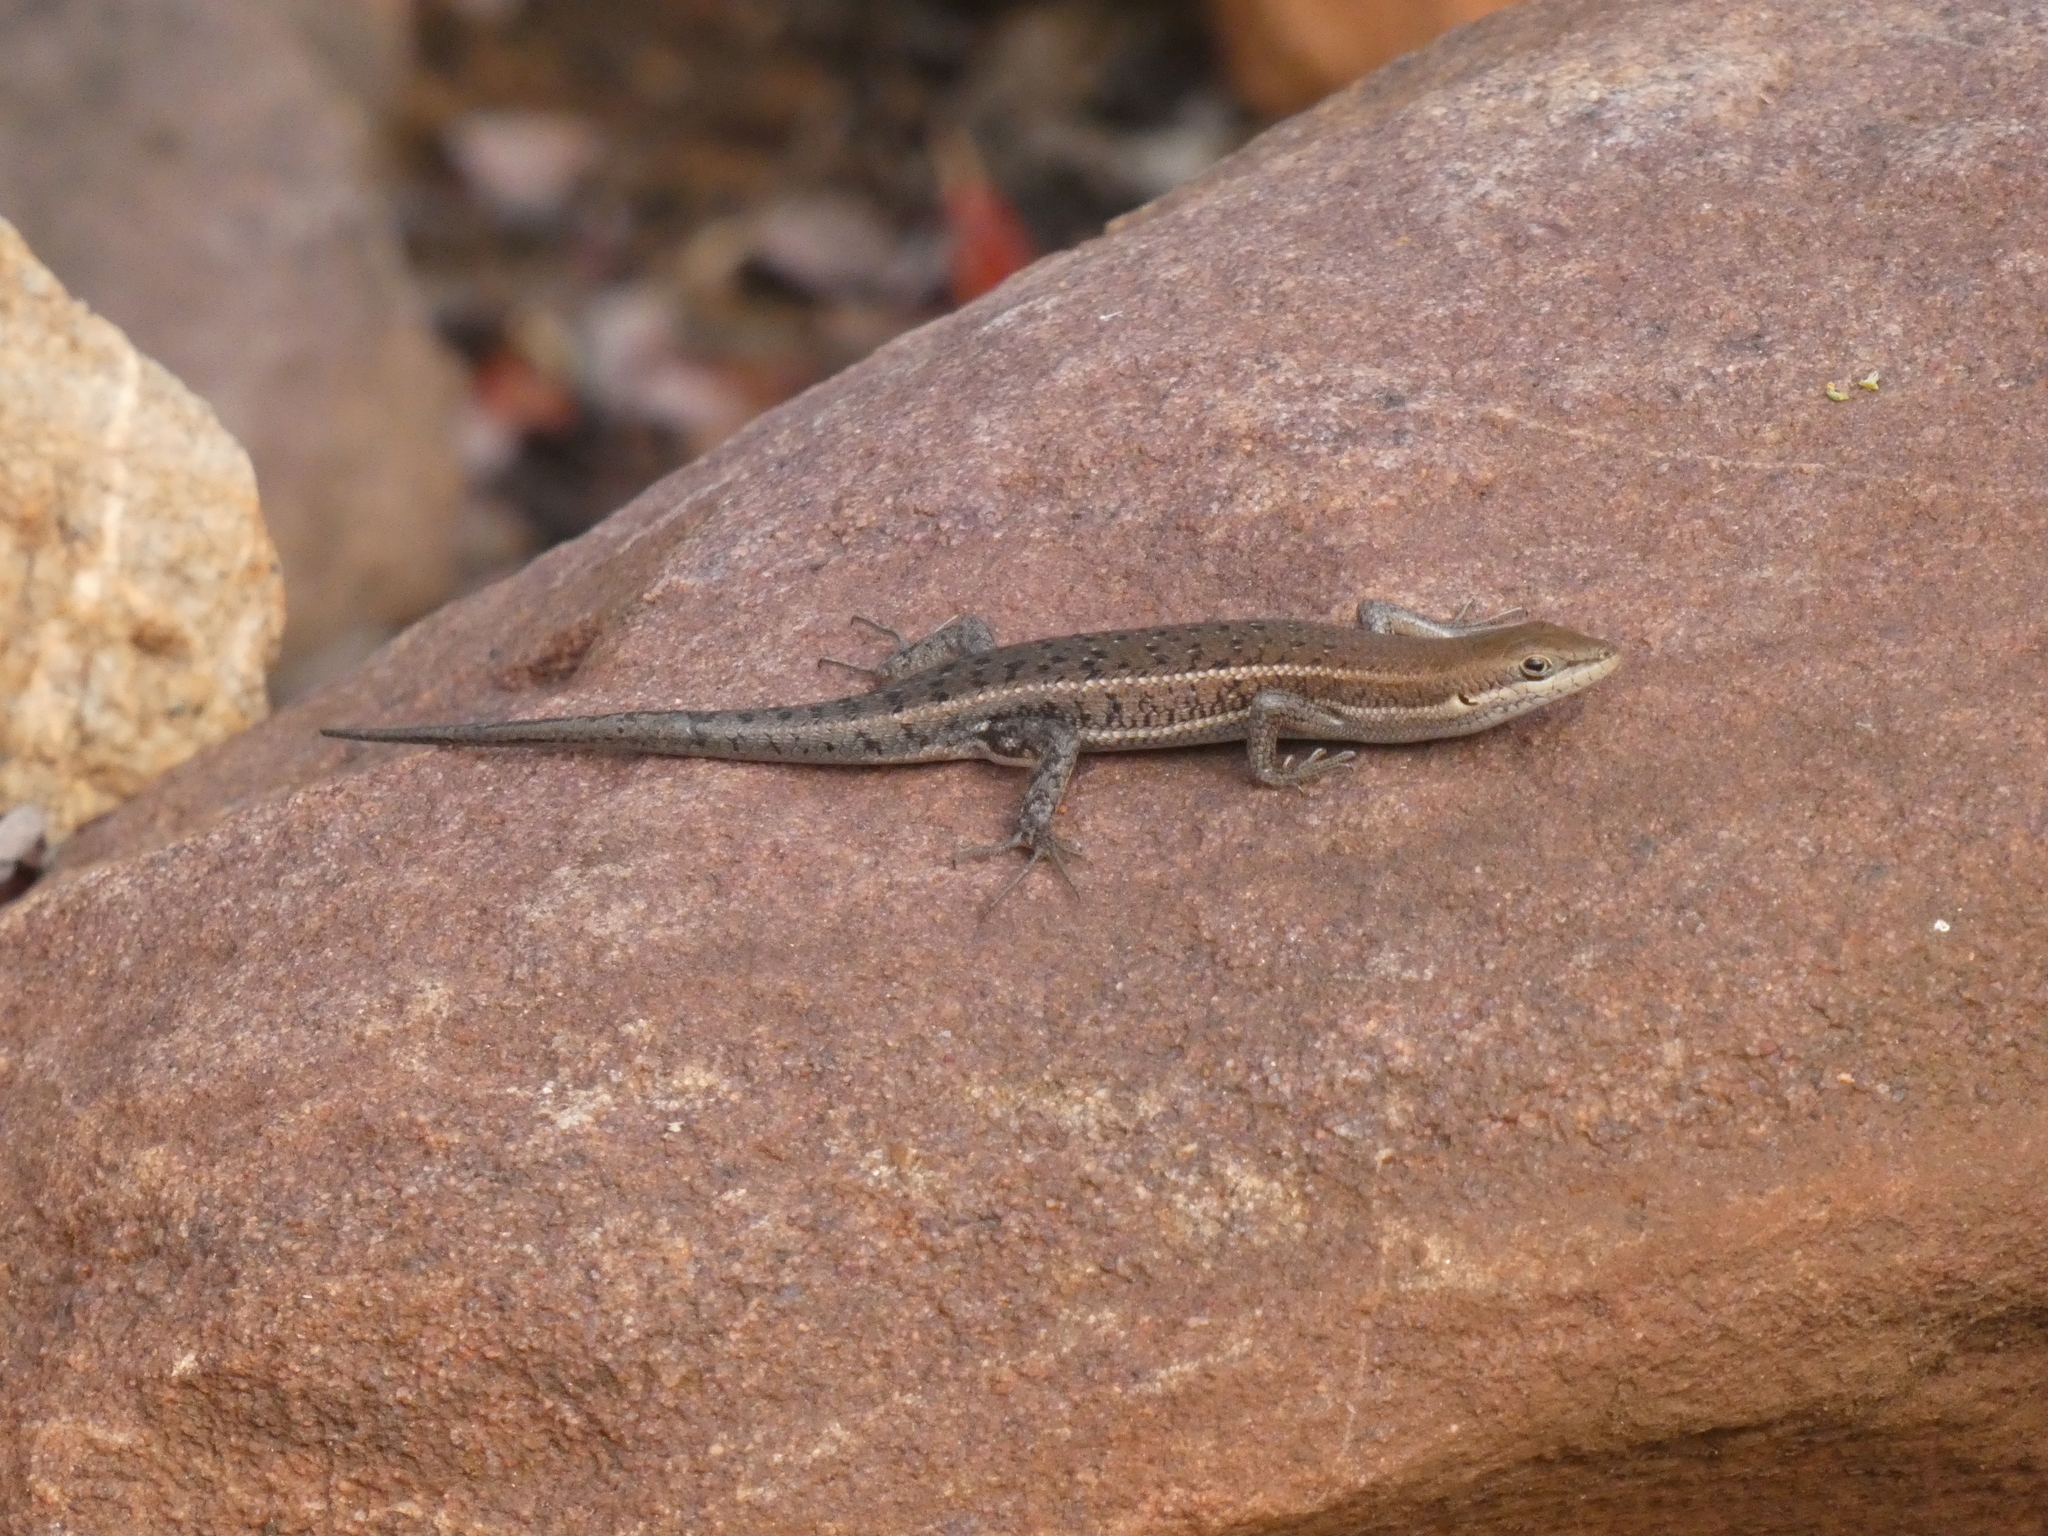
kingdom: Animalia
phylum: Chordata
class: Squamata
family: Scincidae
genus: Trachylepis
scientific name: Trachylepis varia
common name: Eastern variable skink
